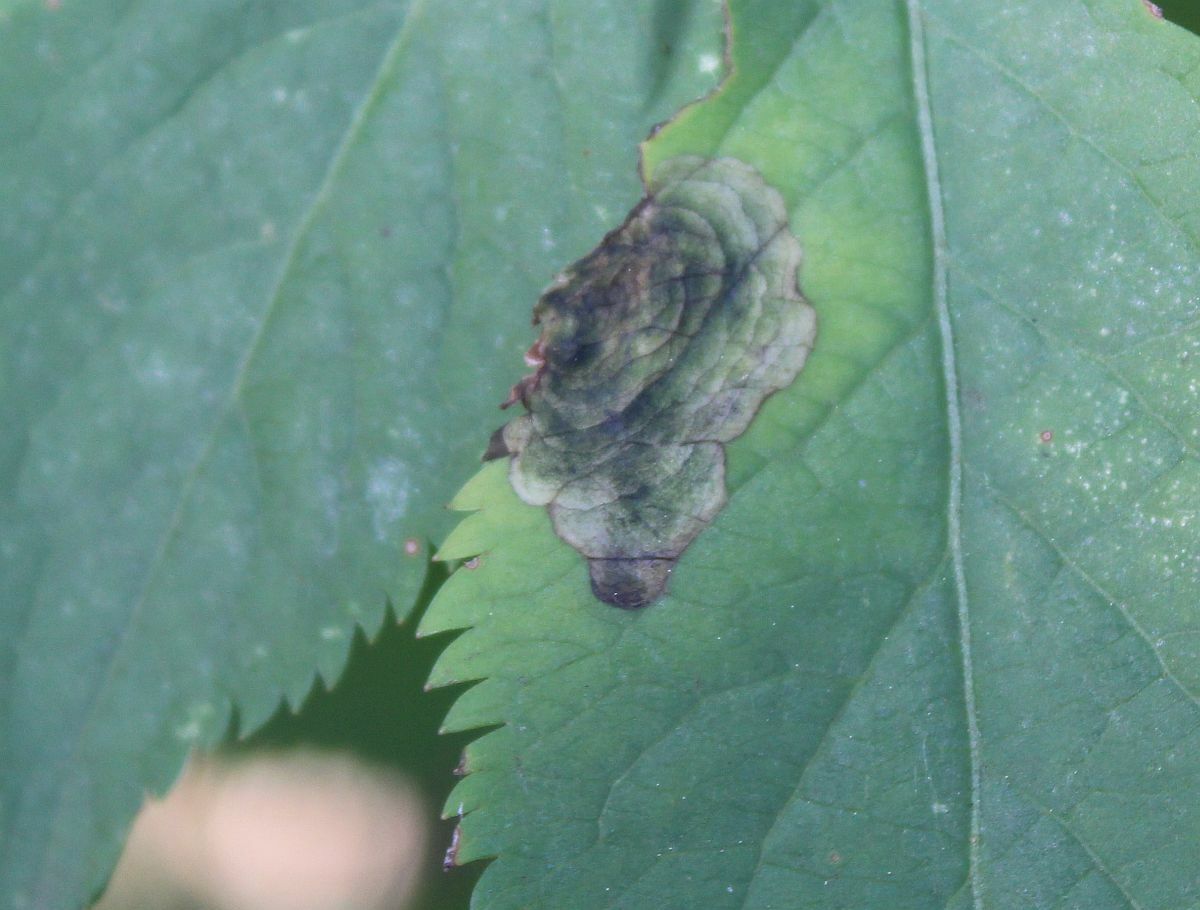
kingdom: Animalia
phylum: Arthropoda
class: Insecta
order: Diptera
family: Agromyzidae
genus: Liriomyza
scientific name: Liriomyza amoena
